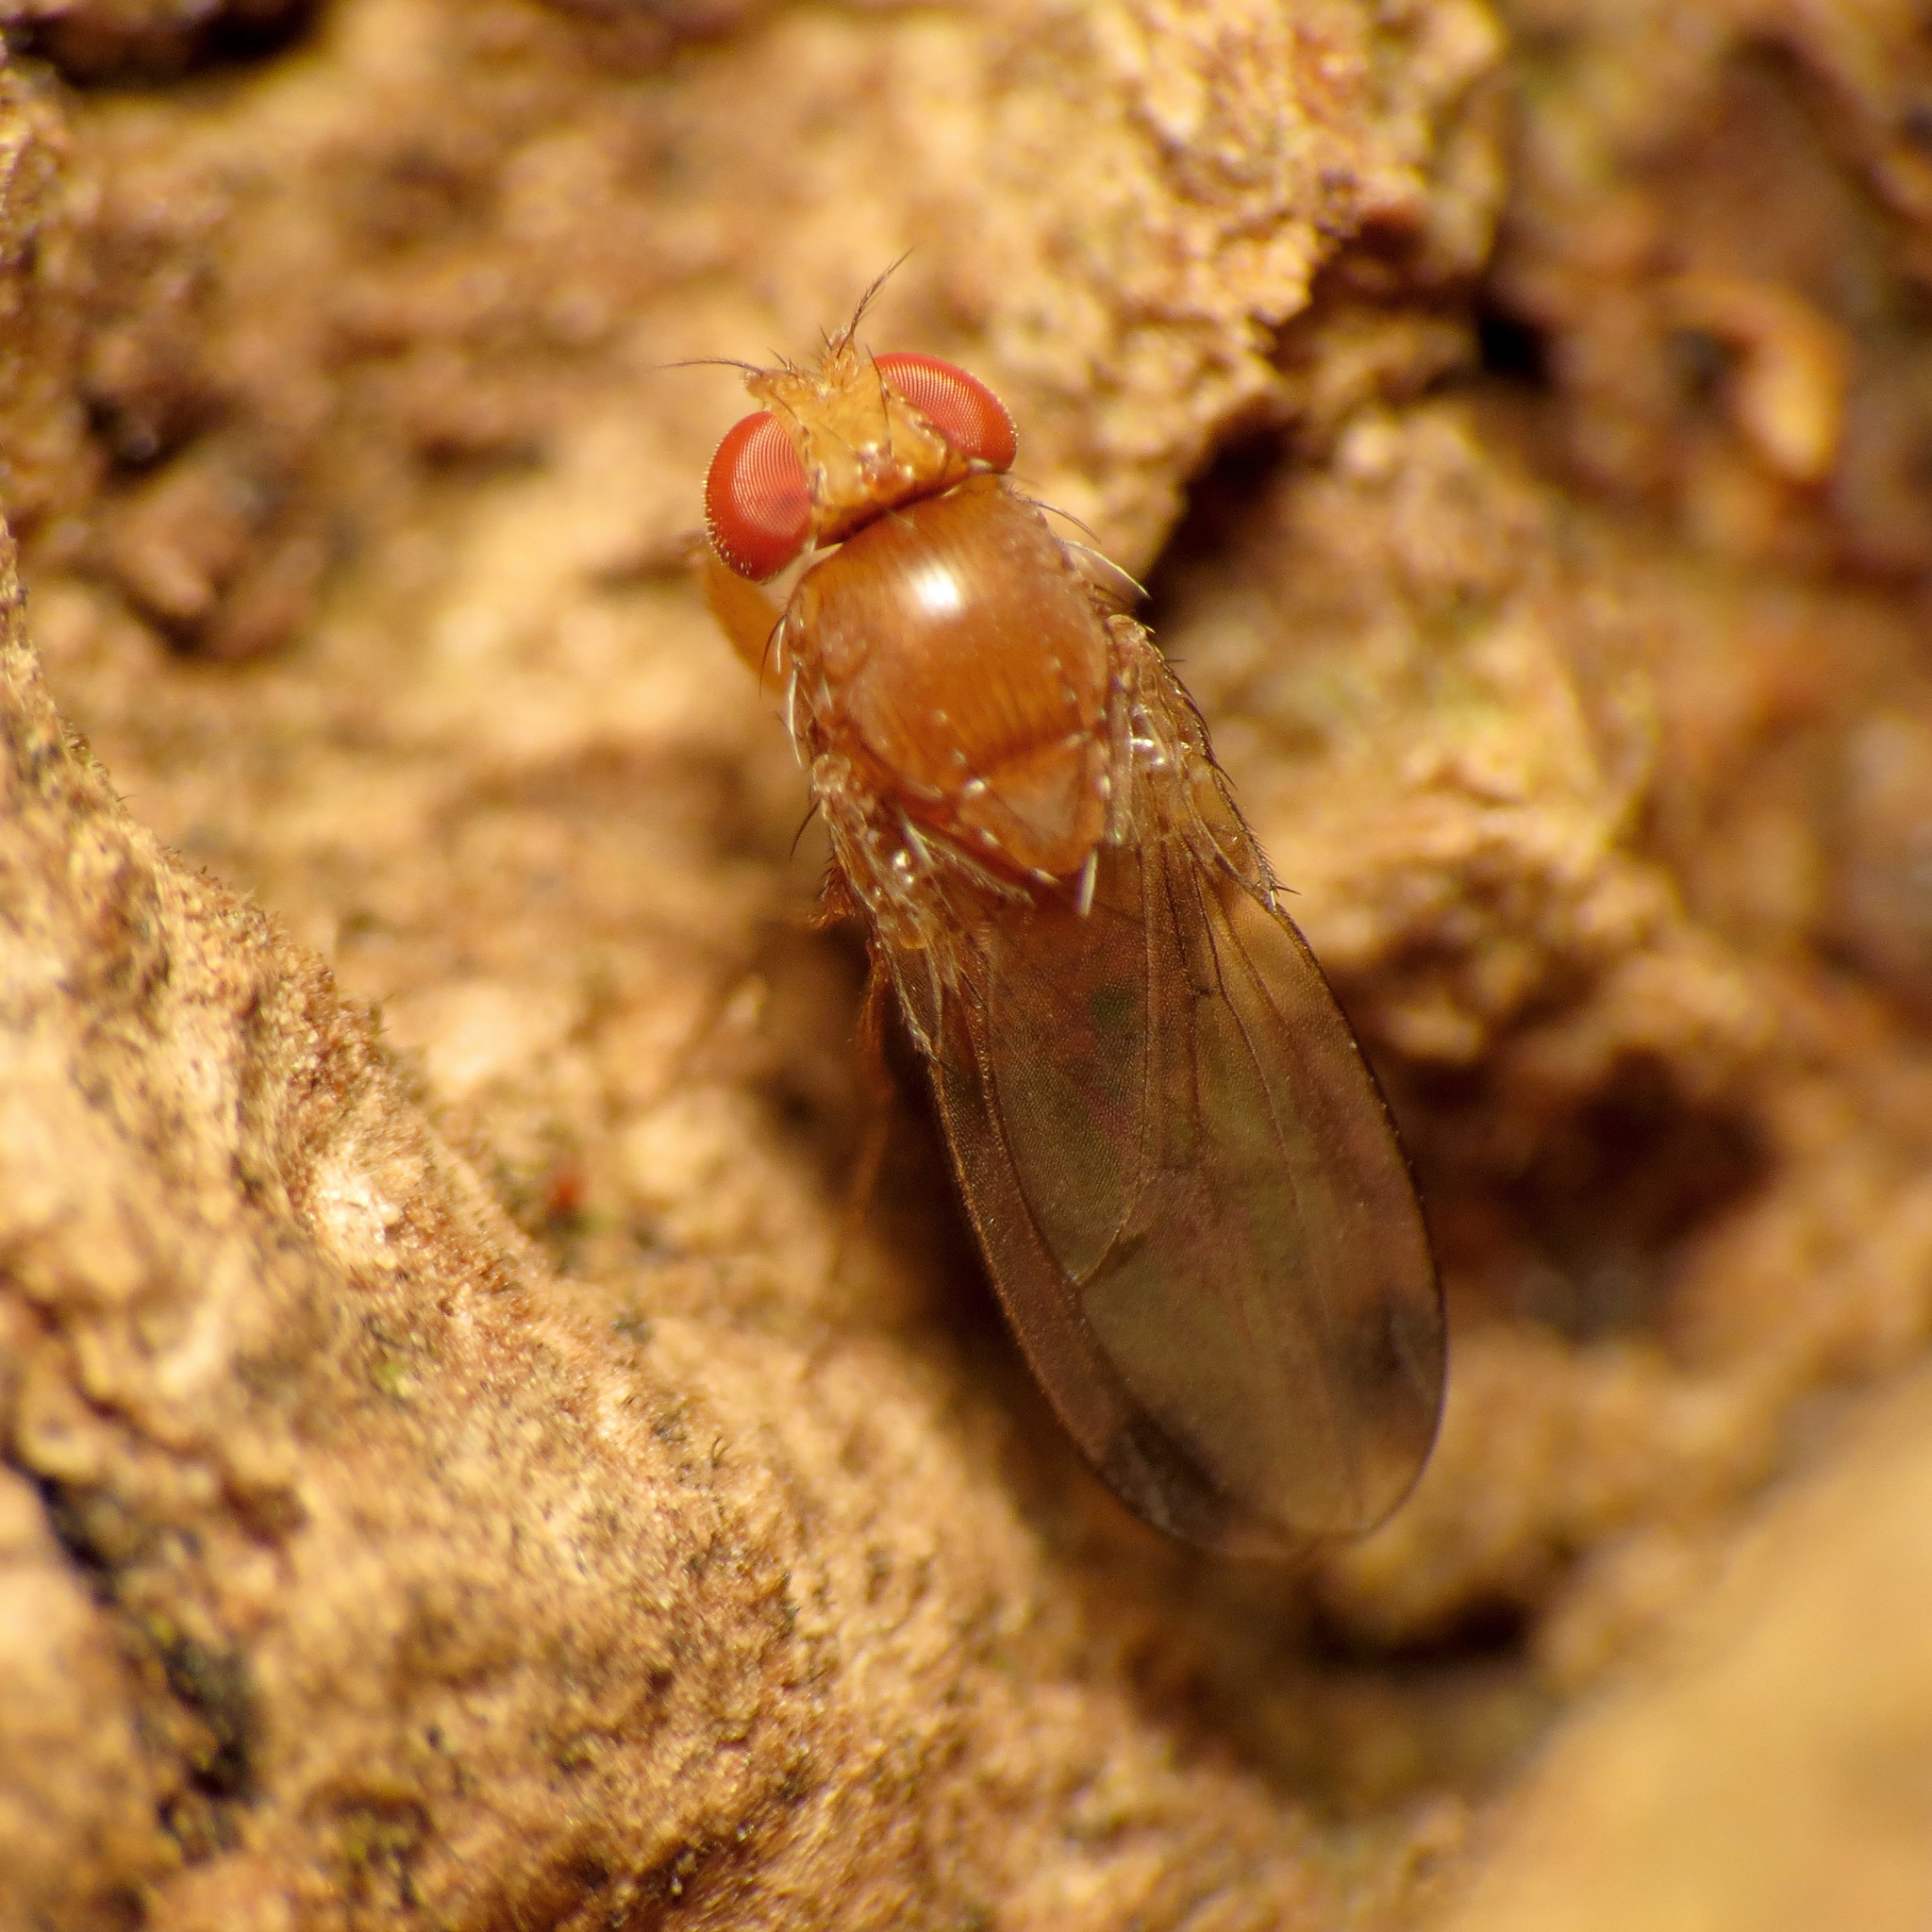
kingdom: Animalia
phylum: Arthropoda
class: Insecta
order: Diptera
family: Drosophilidae
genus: Drosophila
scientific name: Drosophila suzukii
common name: Spotted-wing drosophila
